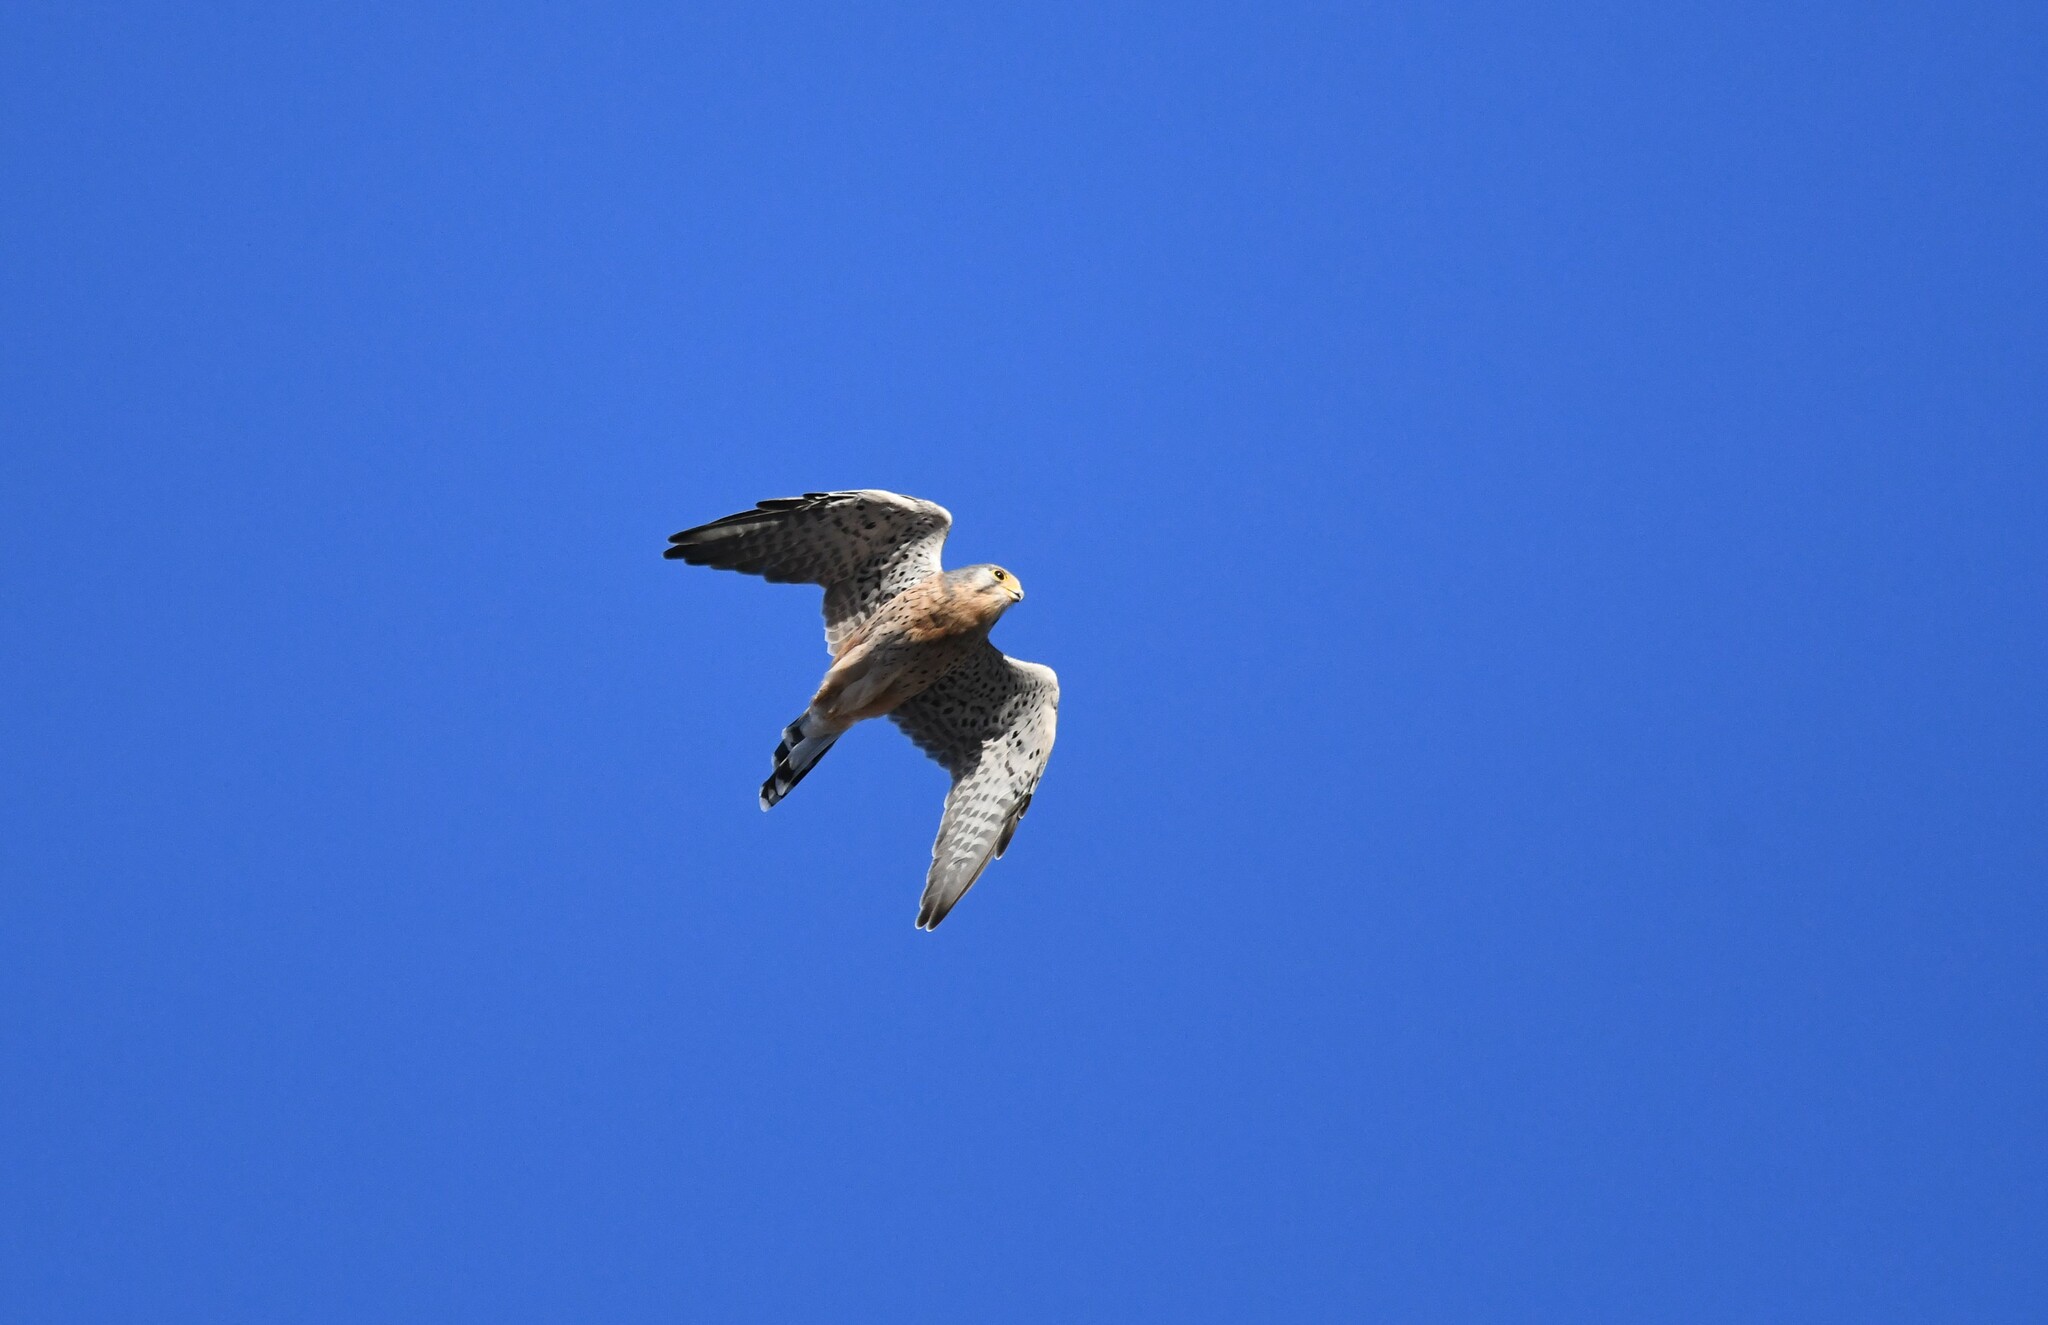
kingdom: Animalia
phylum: Chordata
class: Aves
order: Falconiformes
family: Falconidae
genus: Falco
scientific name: Falco tinnunculus
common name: Common kestrel
